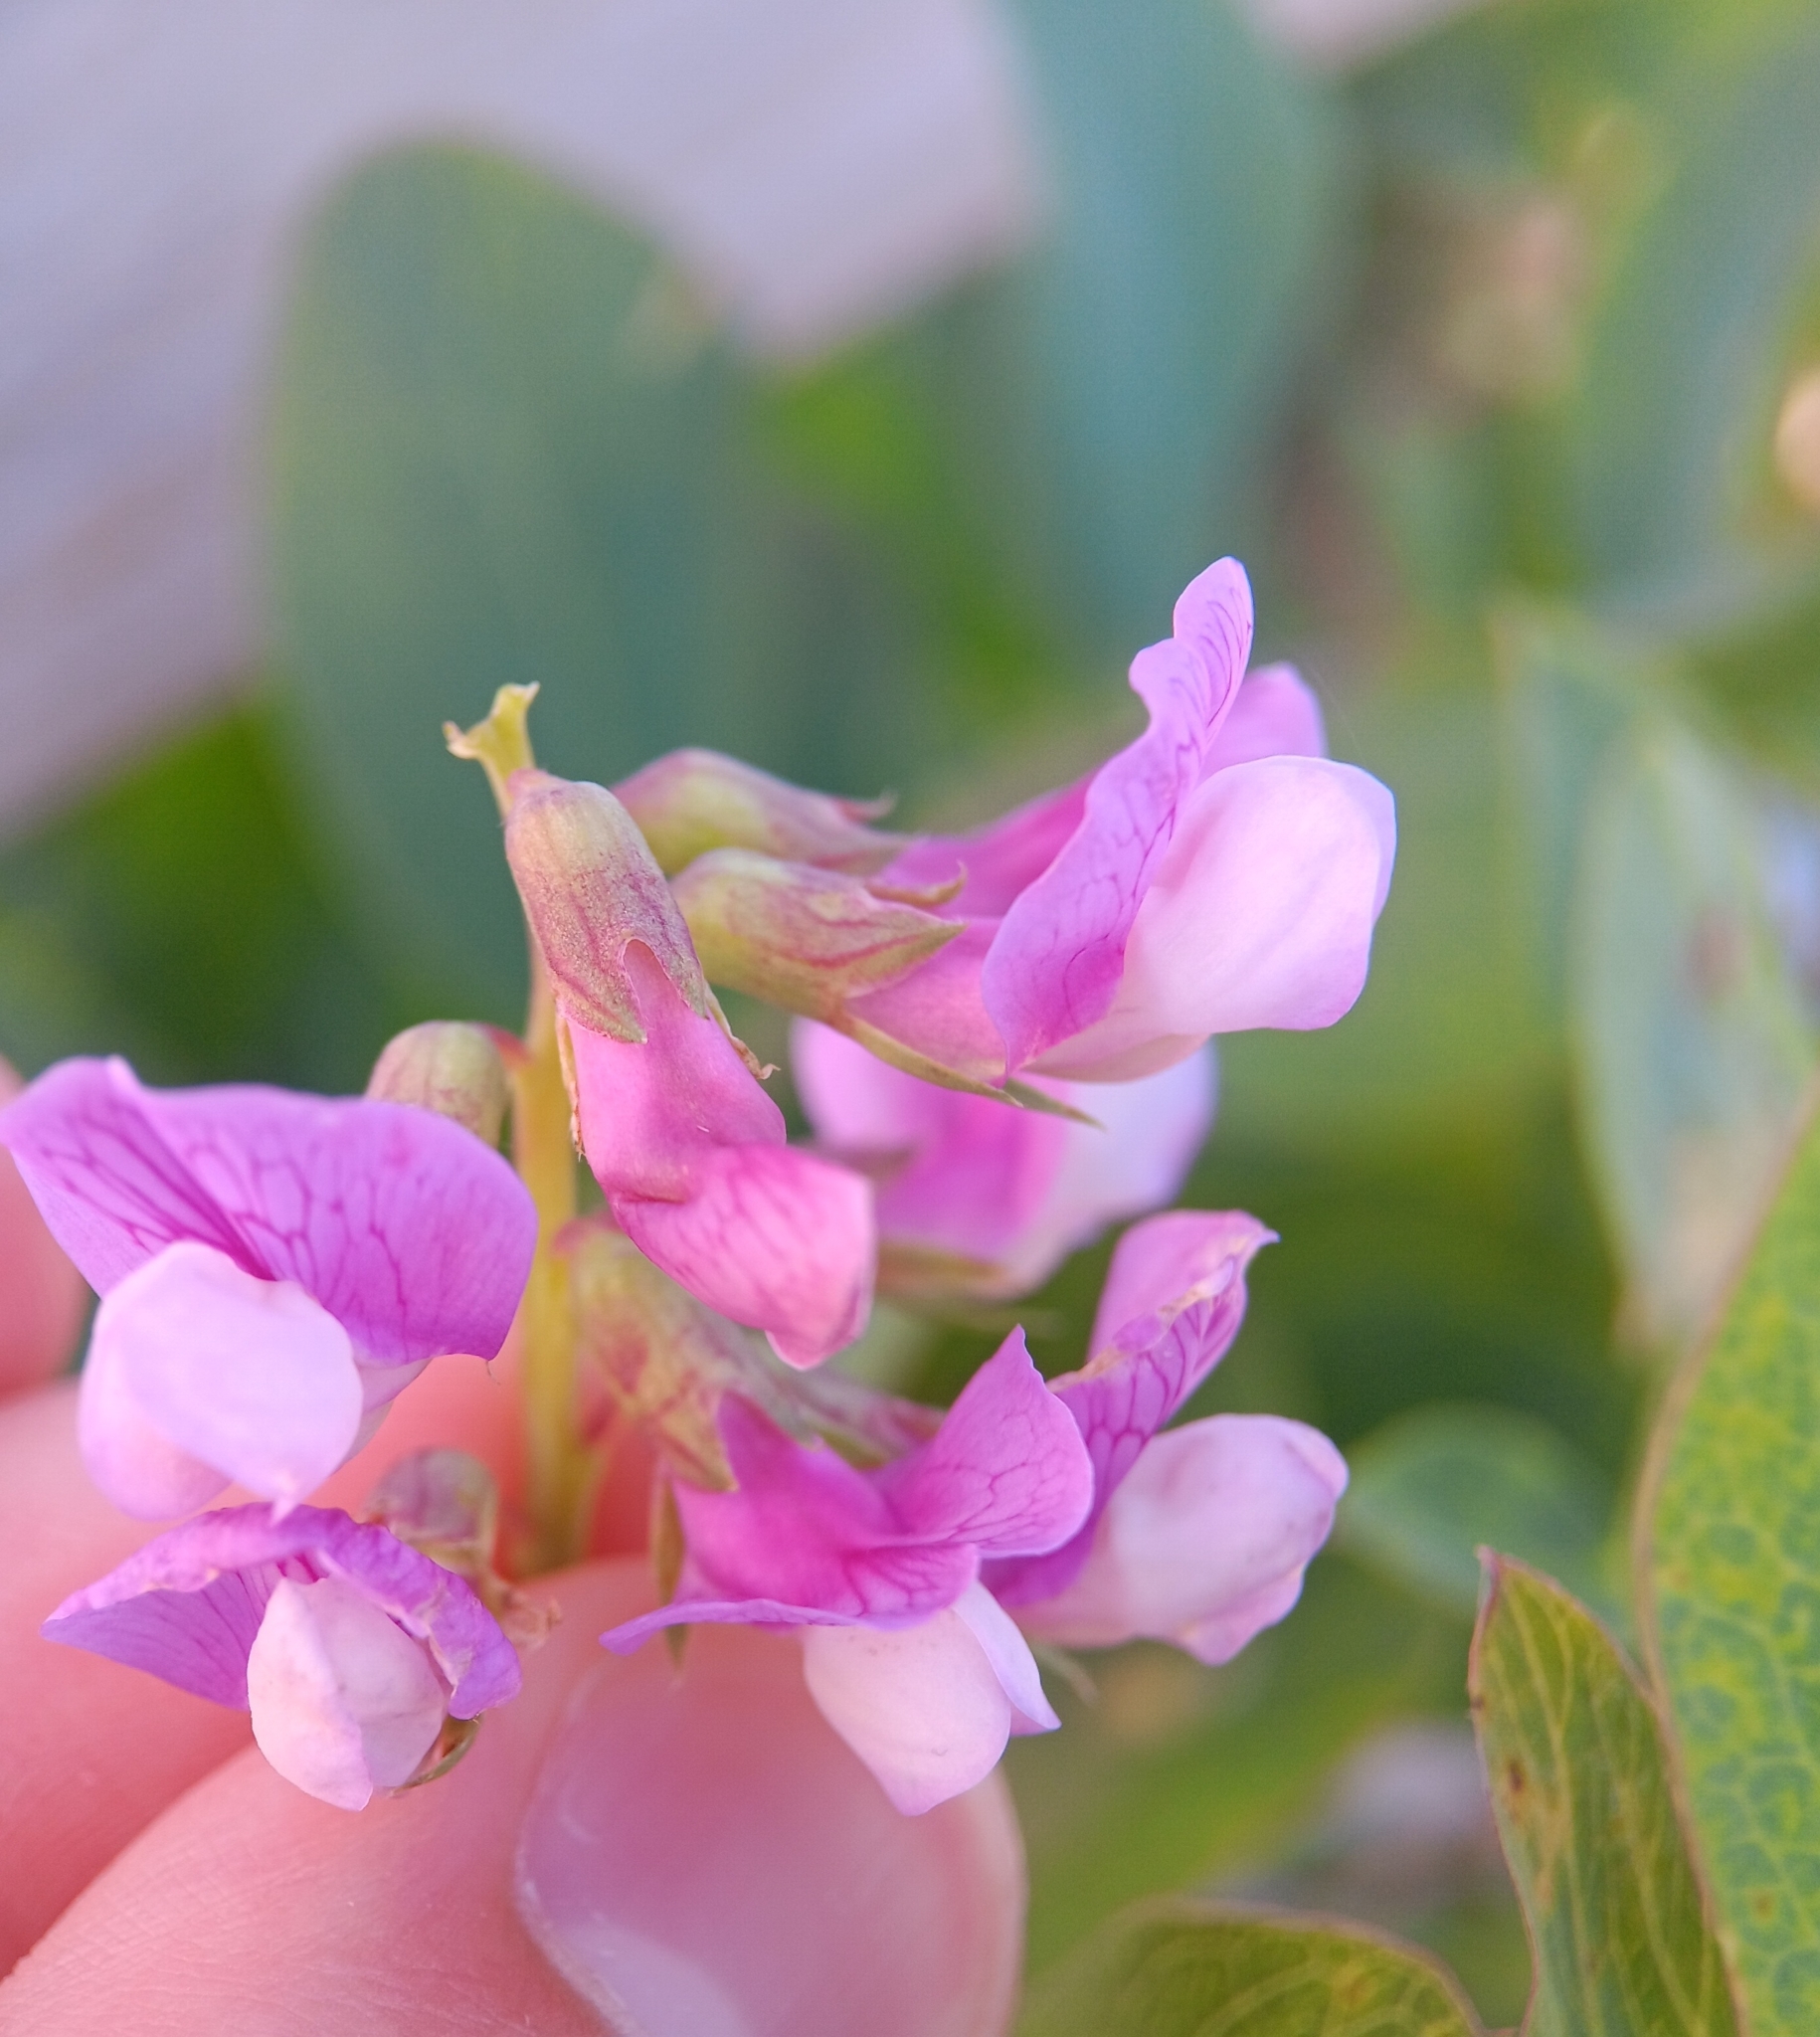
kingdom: Plantae
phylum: Tracheophyta
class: Magnoliopsida
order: Fabales
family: Fabaceae
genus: Lathyrus
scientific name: Lathyrus japonicus
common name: Sea pea
